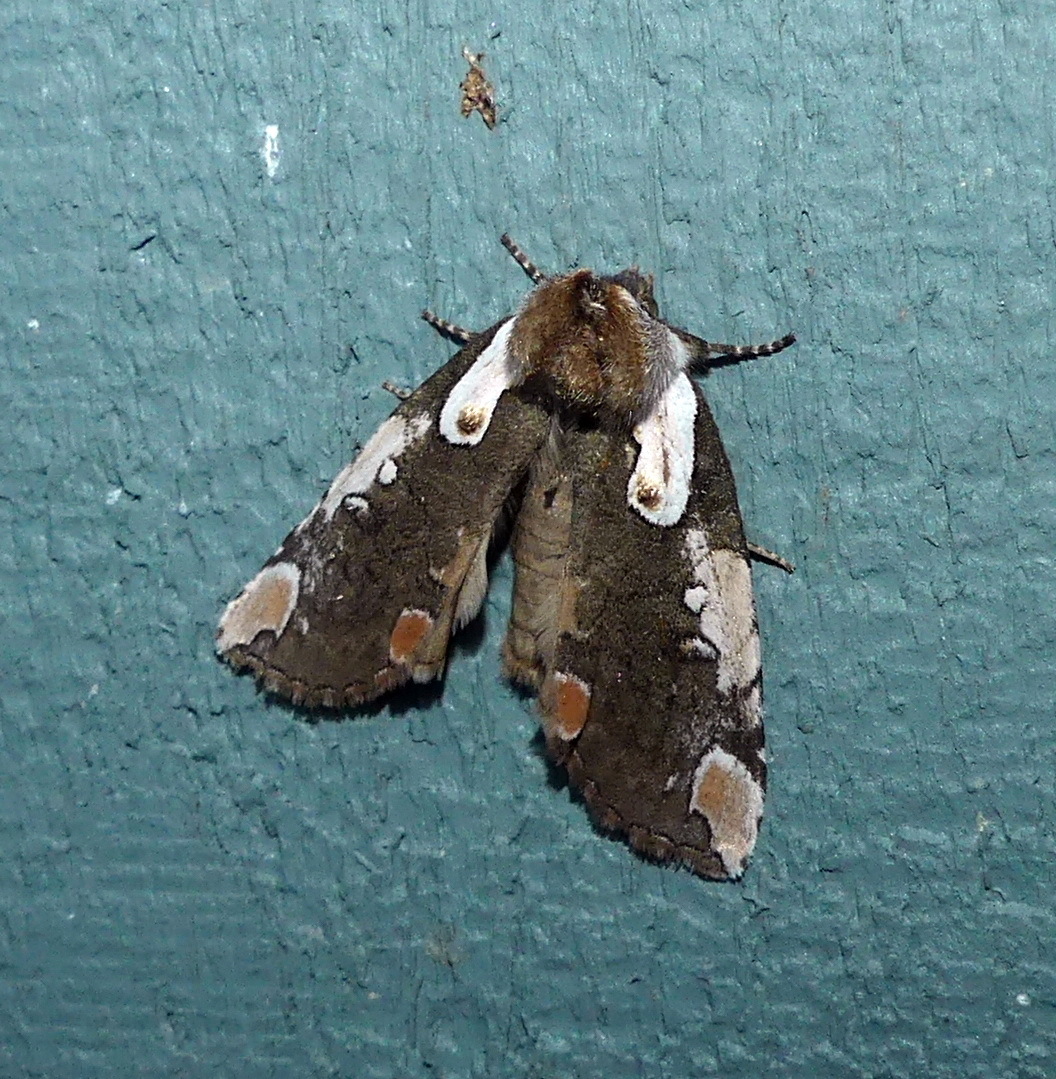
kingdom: Animalia
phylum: Arthropoda
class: Insecta
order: Lepidoptera
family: Drepanidae
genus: Euthyatira
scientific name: Euthyatira pudens
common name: Dogwood thyatirid moth
